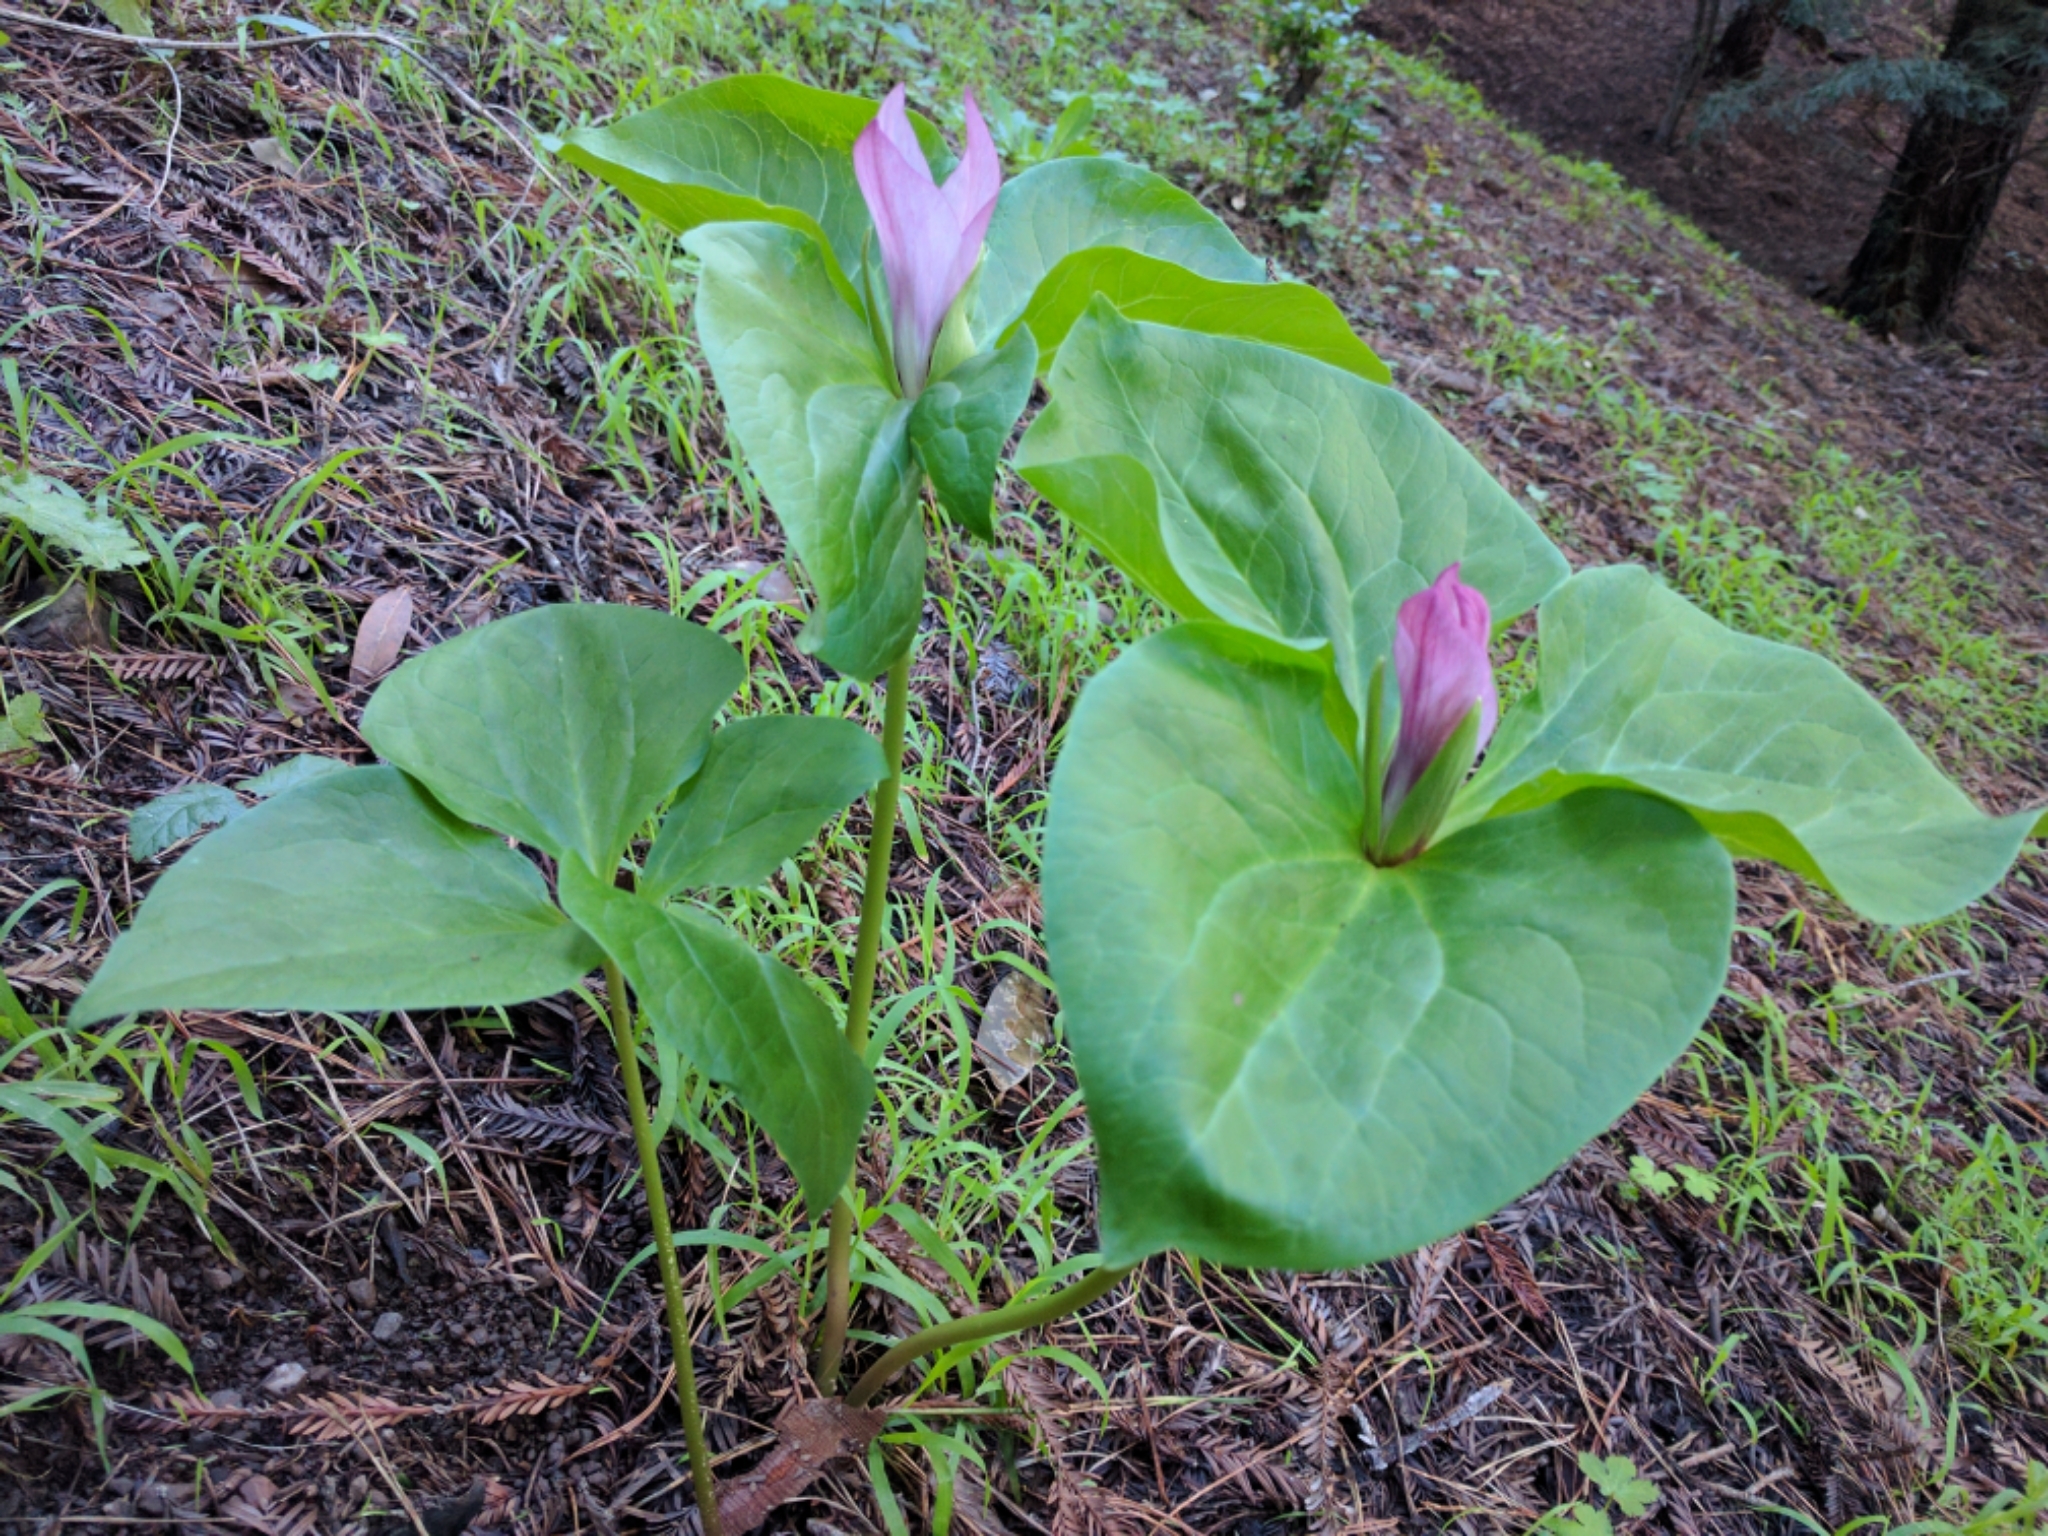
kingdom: Plantae
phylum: Tracheophyta
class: Liliopsida
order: Liliales
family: Melanthiaceae
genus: Trillium
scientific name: Trillium chloropetalum
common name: Giant trillium
